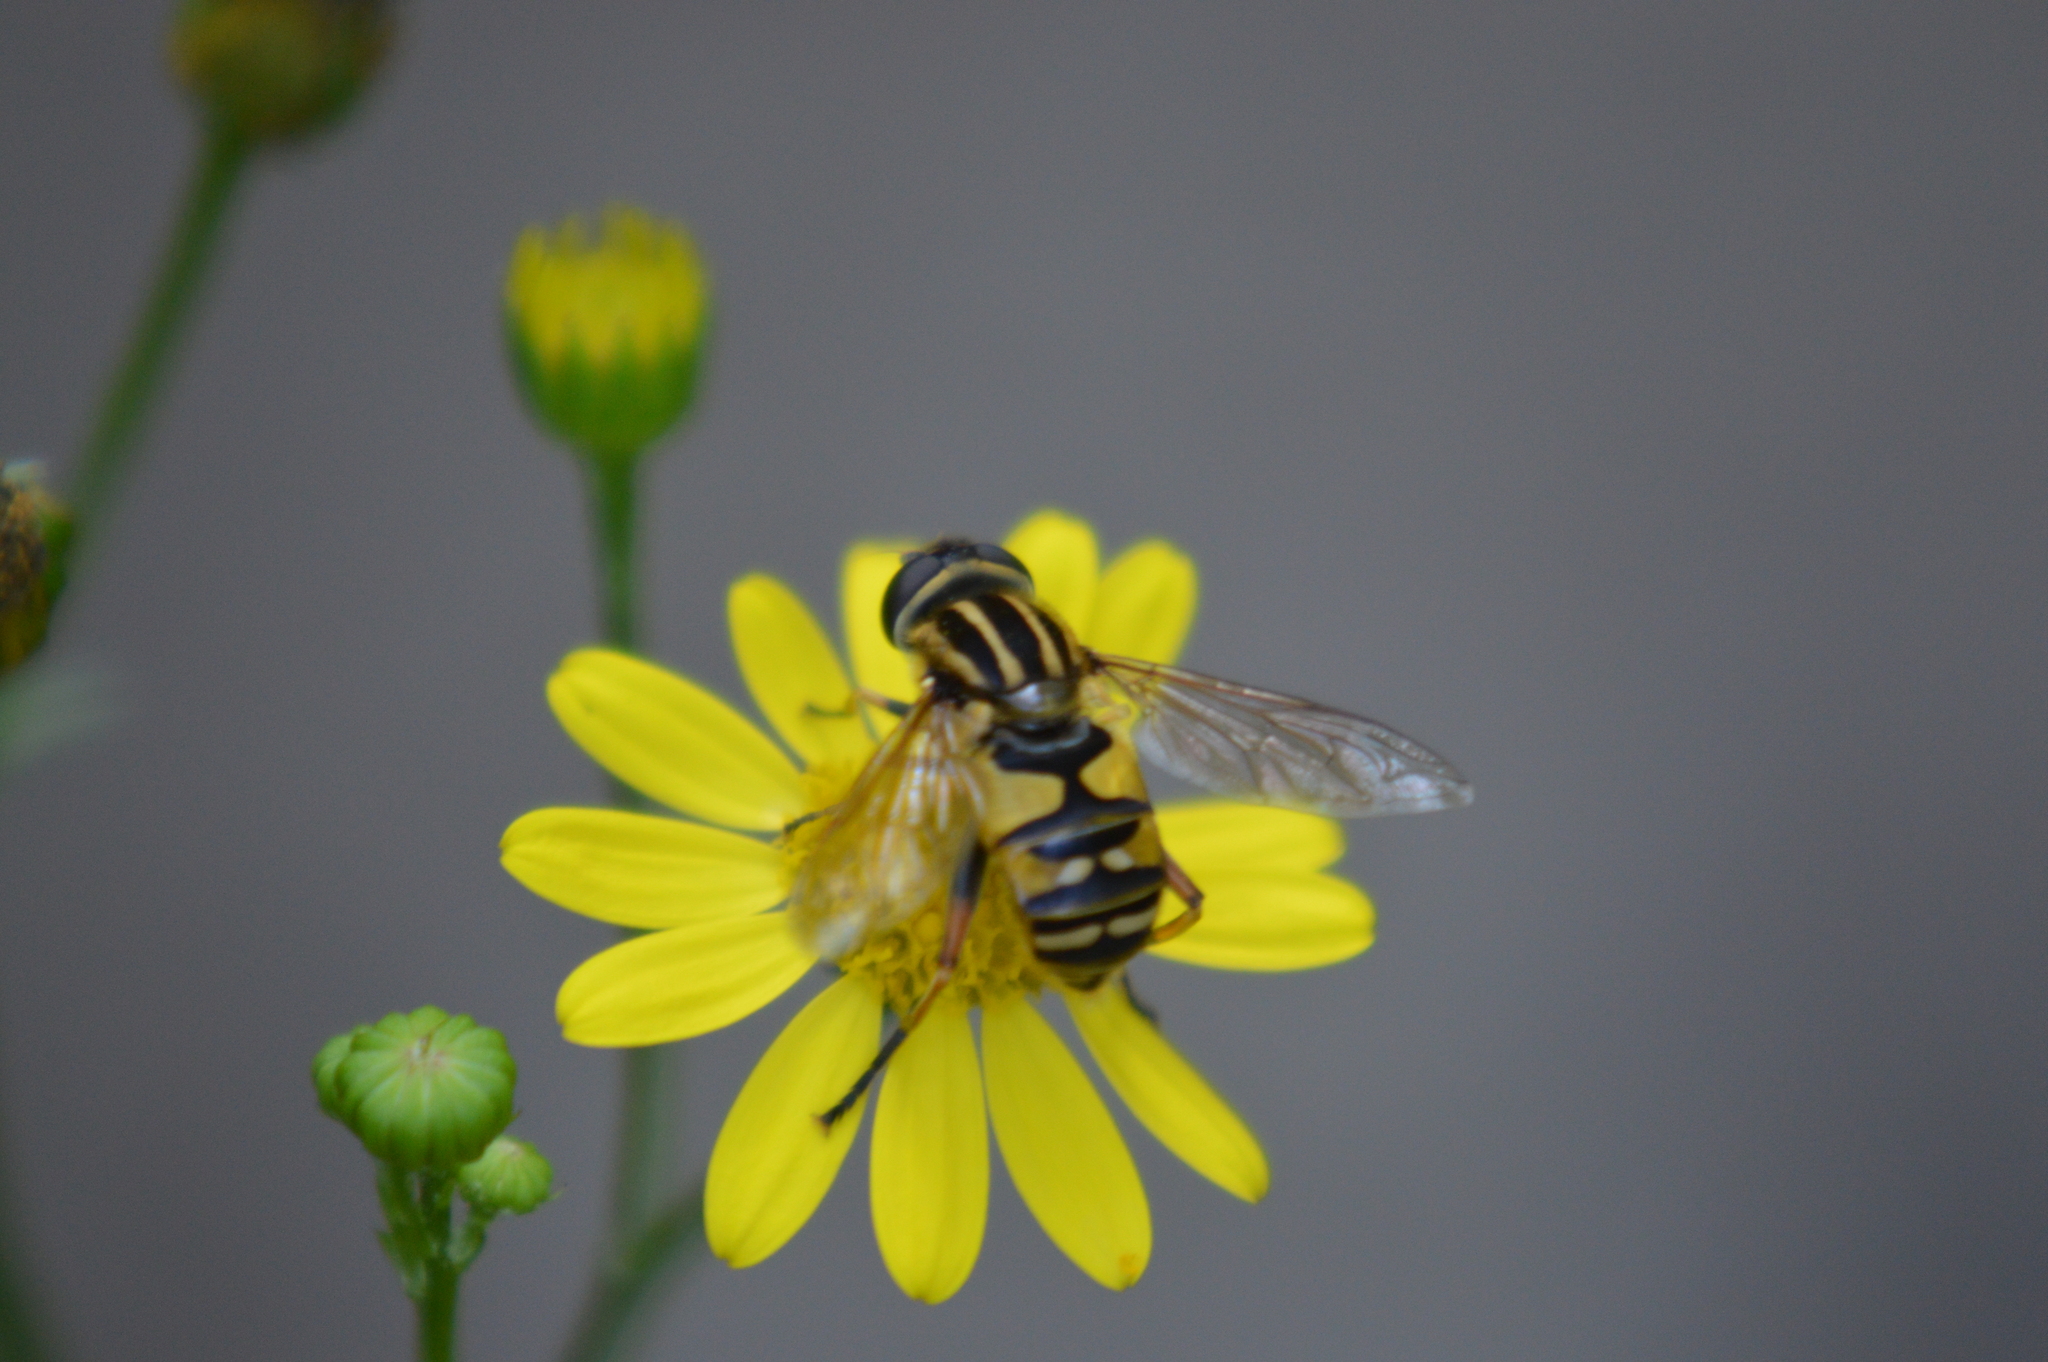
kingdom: Animalia
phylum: Arthropoda
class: Insecta
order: Diptera
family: Syrphidae
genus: Helophilus
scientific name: Helophilus pendulus
